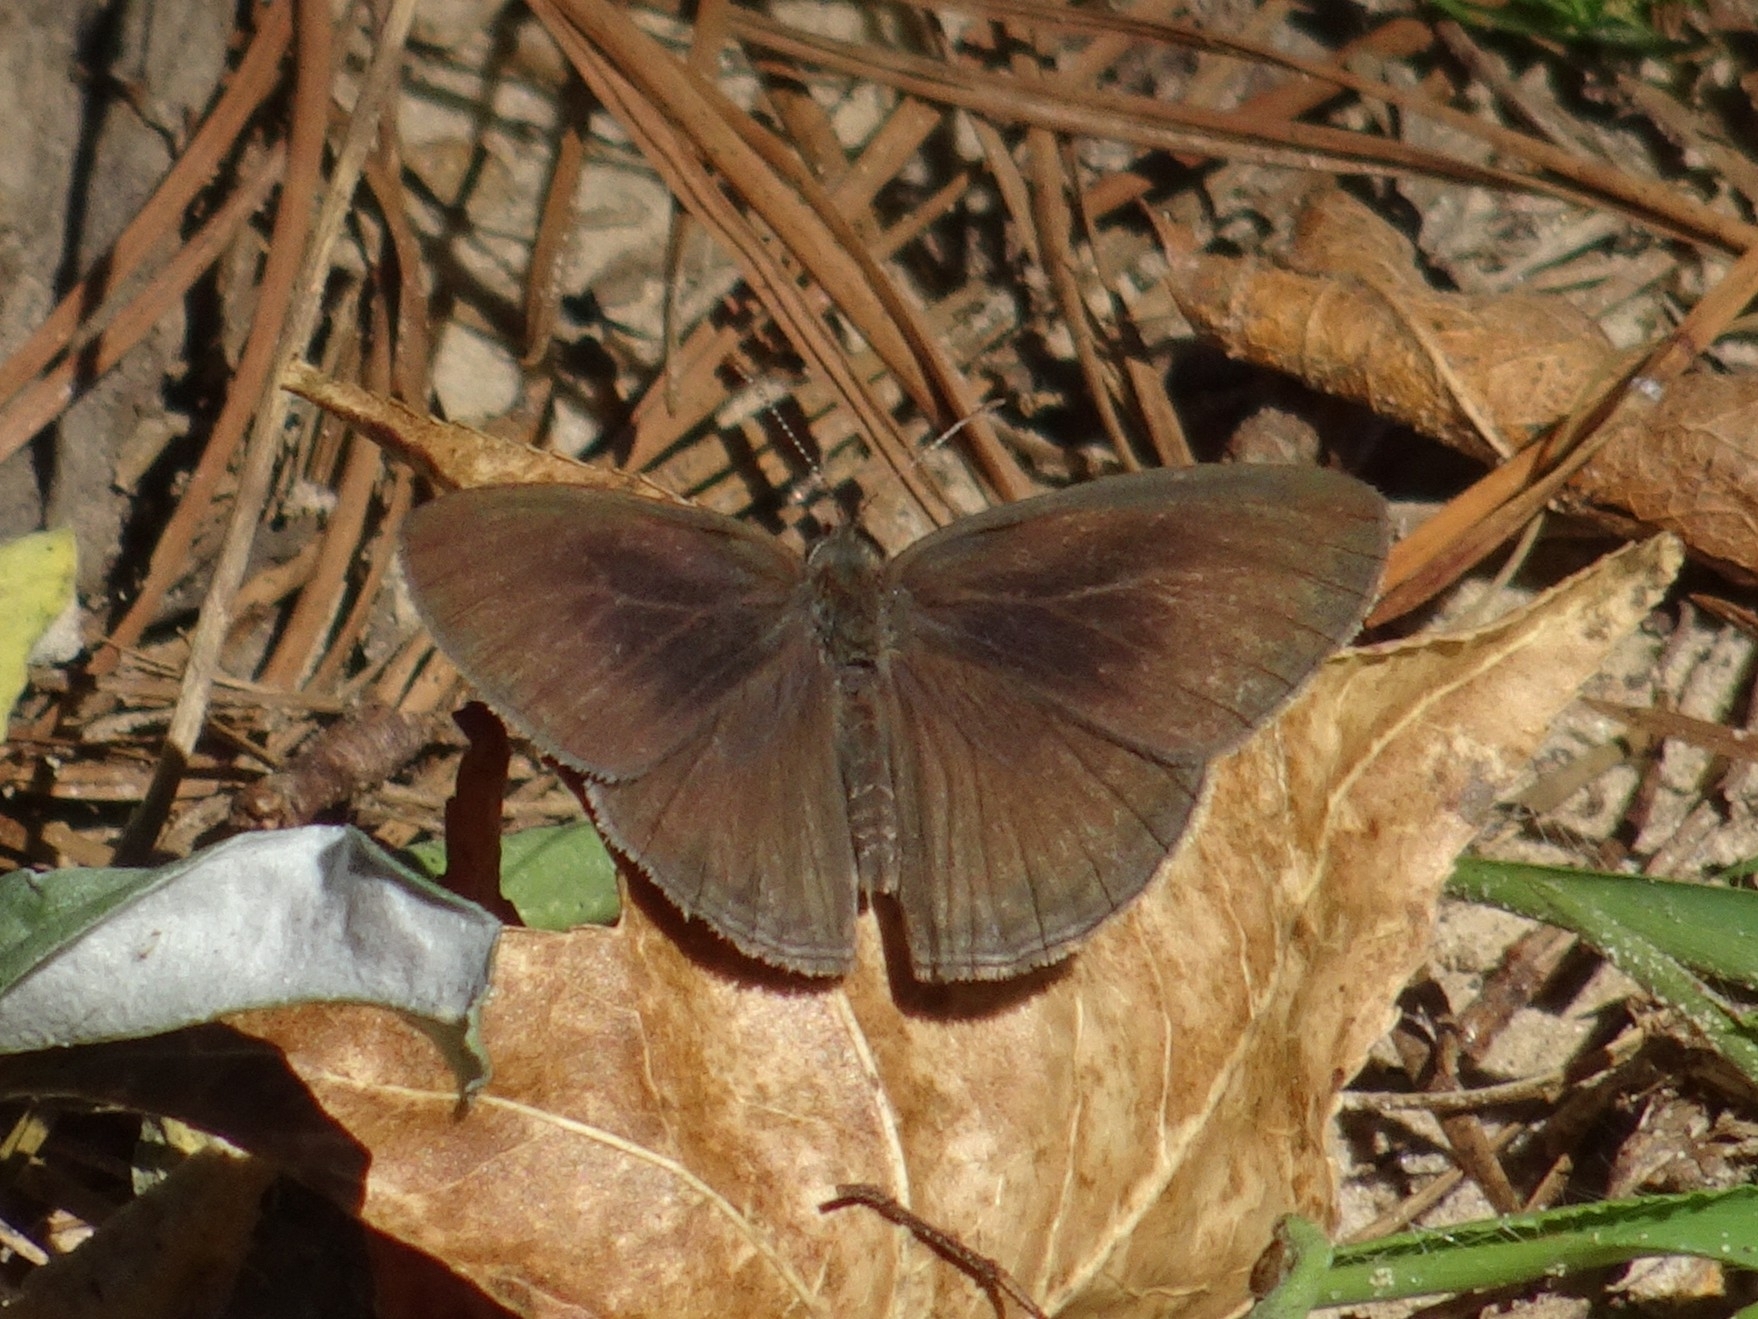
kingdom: Animalia
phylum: Arthropoda
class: Insecta
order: Lepidoptera
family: Nymphalidae
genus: Hermeuptychia
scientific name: Hermeuptychia hermes
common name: Hermes satyr
